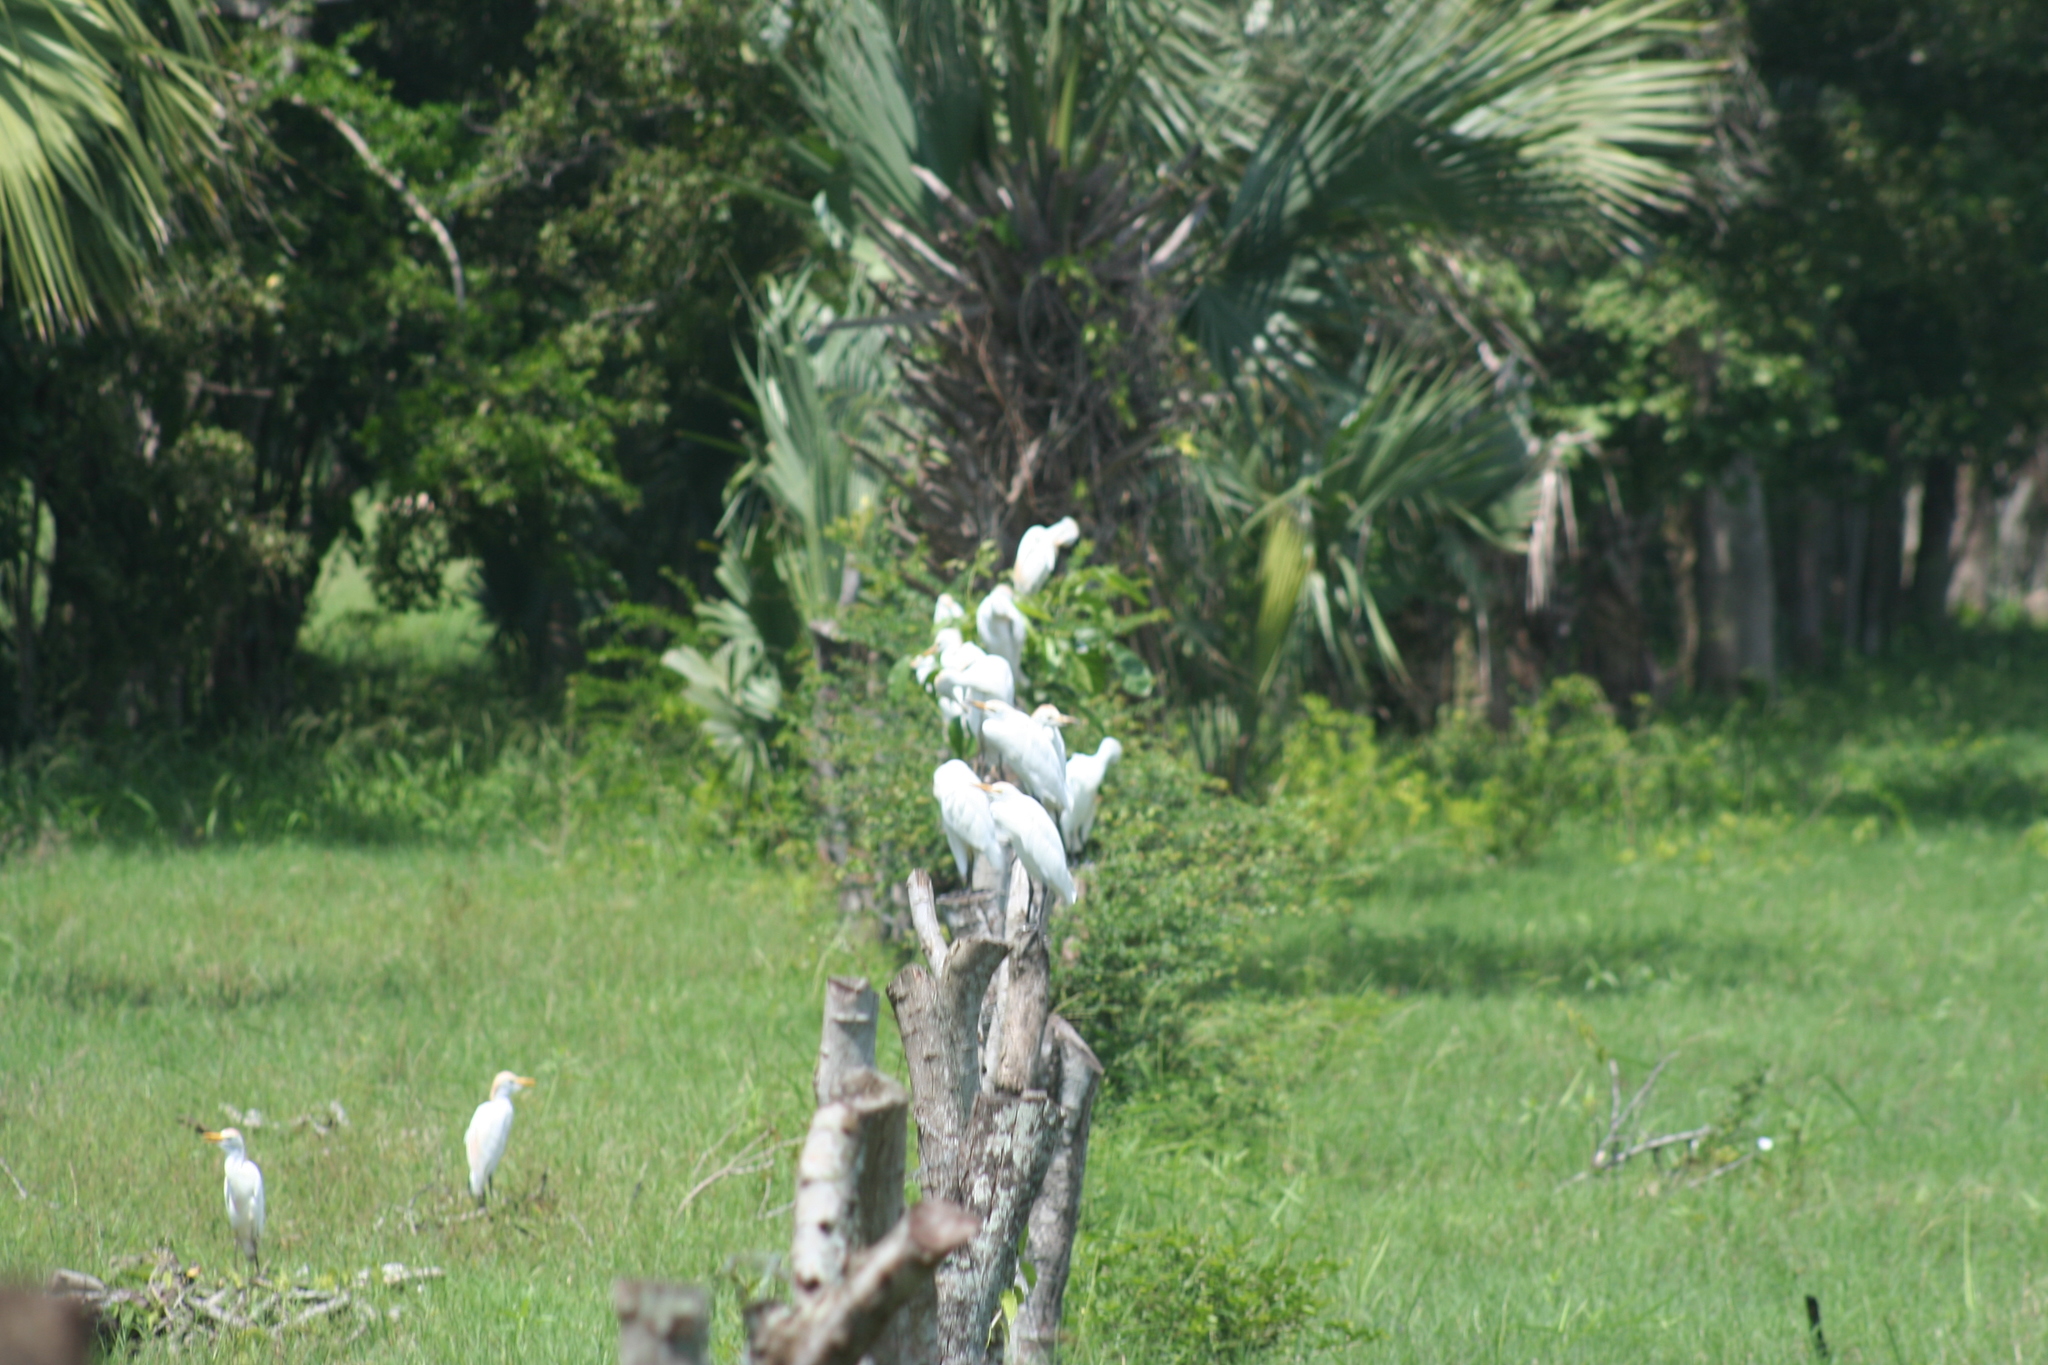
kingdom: Animalia
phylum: Chordata
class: Aves
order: Pelecaniformes
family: Ardeidae
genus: Bubulcus
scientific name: Bubulcus ibis
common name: Cattle egret
